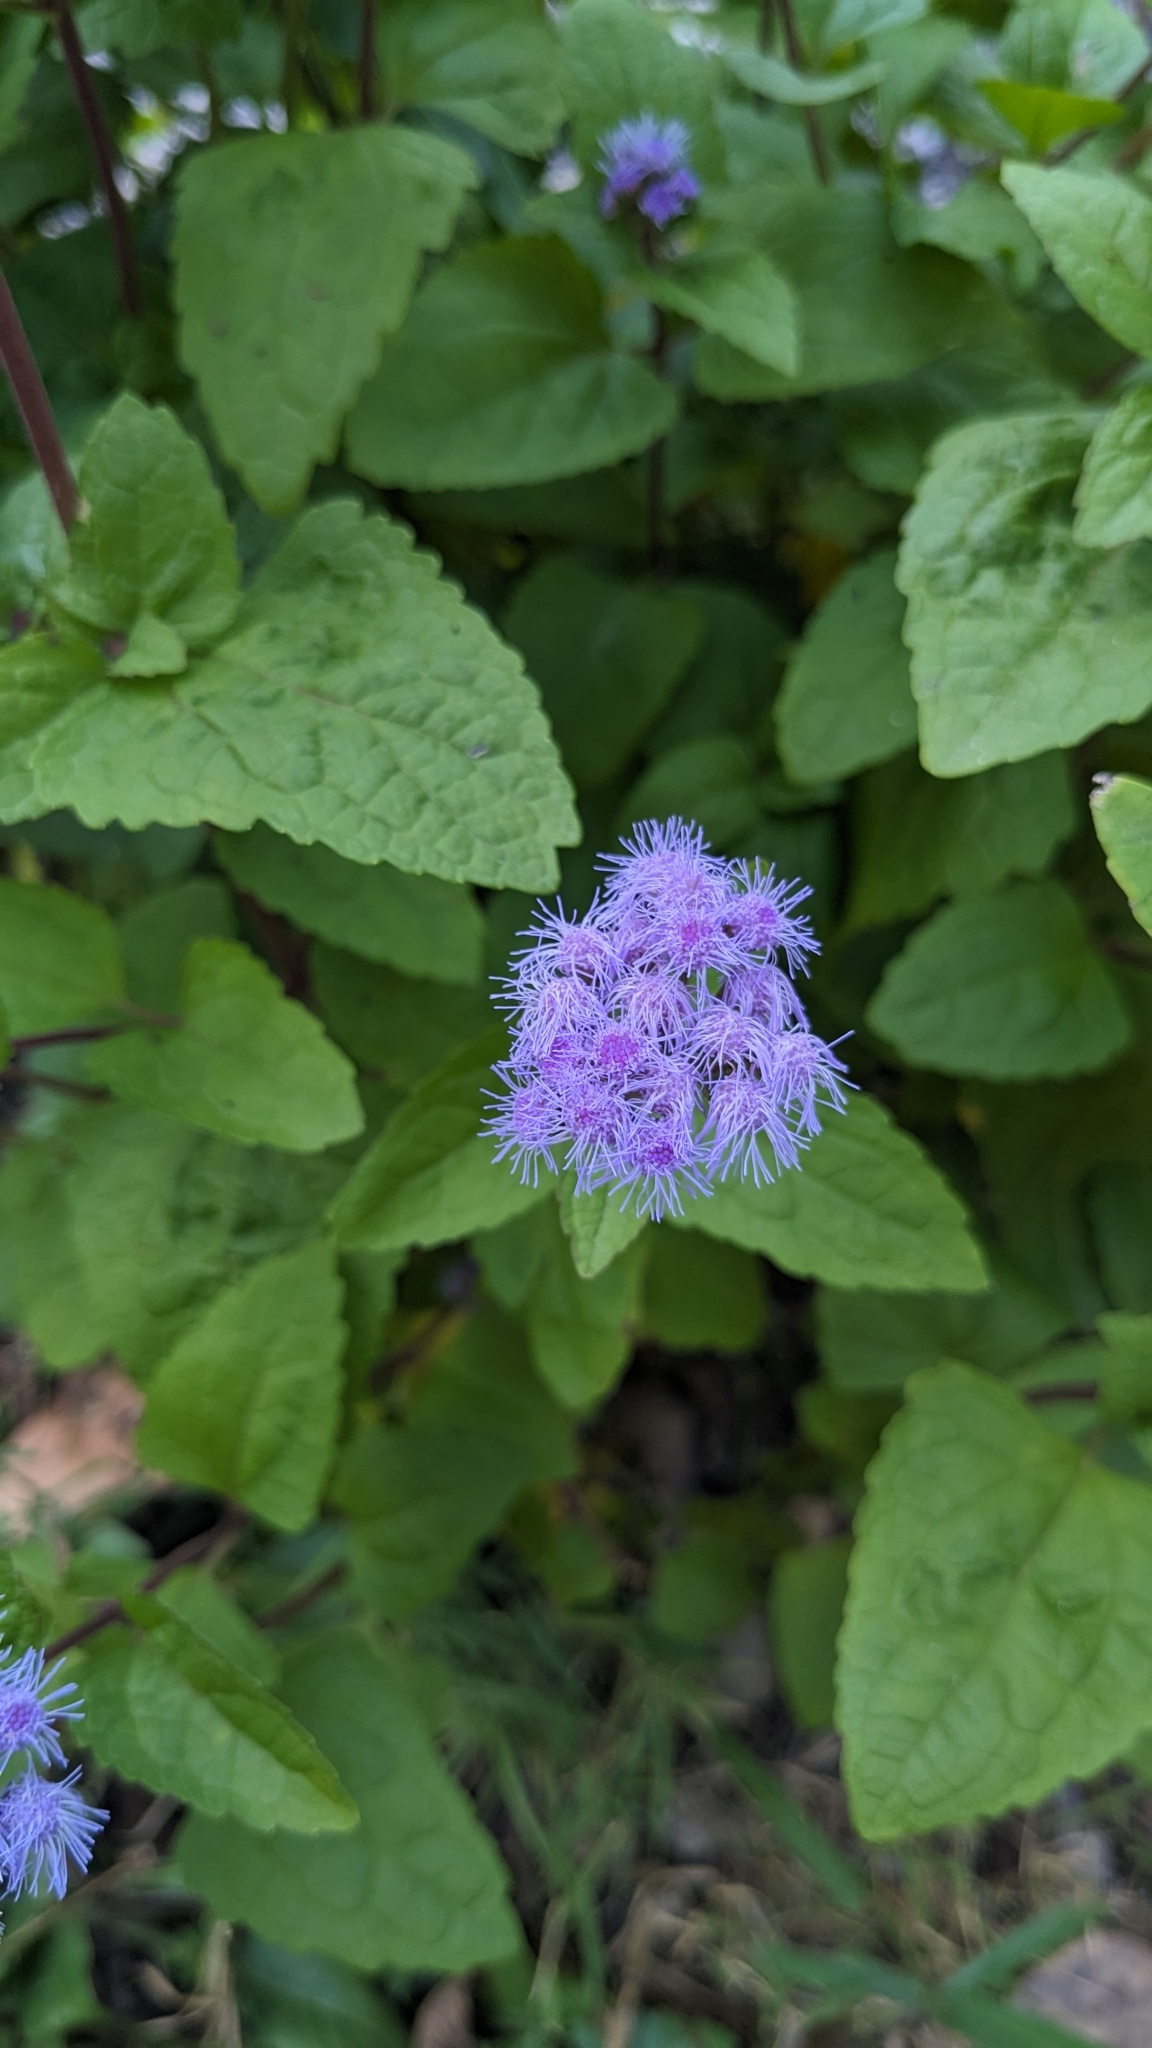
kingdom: Plantae
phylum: Tracheophyta
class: Magnoliopsida
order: Asterales
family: Asteraceae
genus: Conoclinium
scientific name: Conoclinium coelestinum
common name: Blue mistflower
